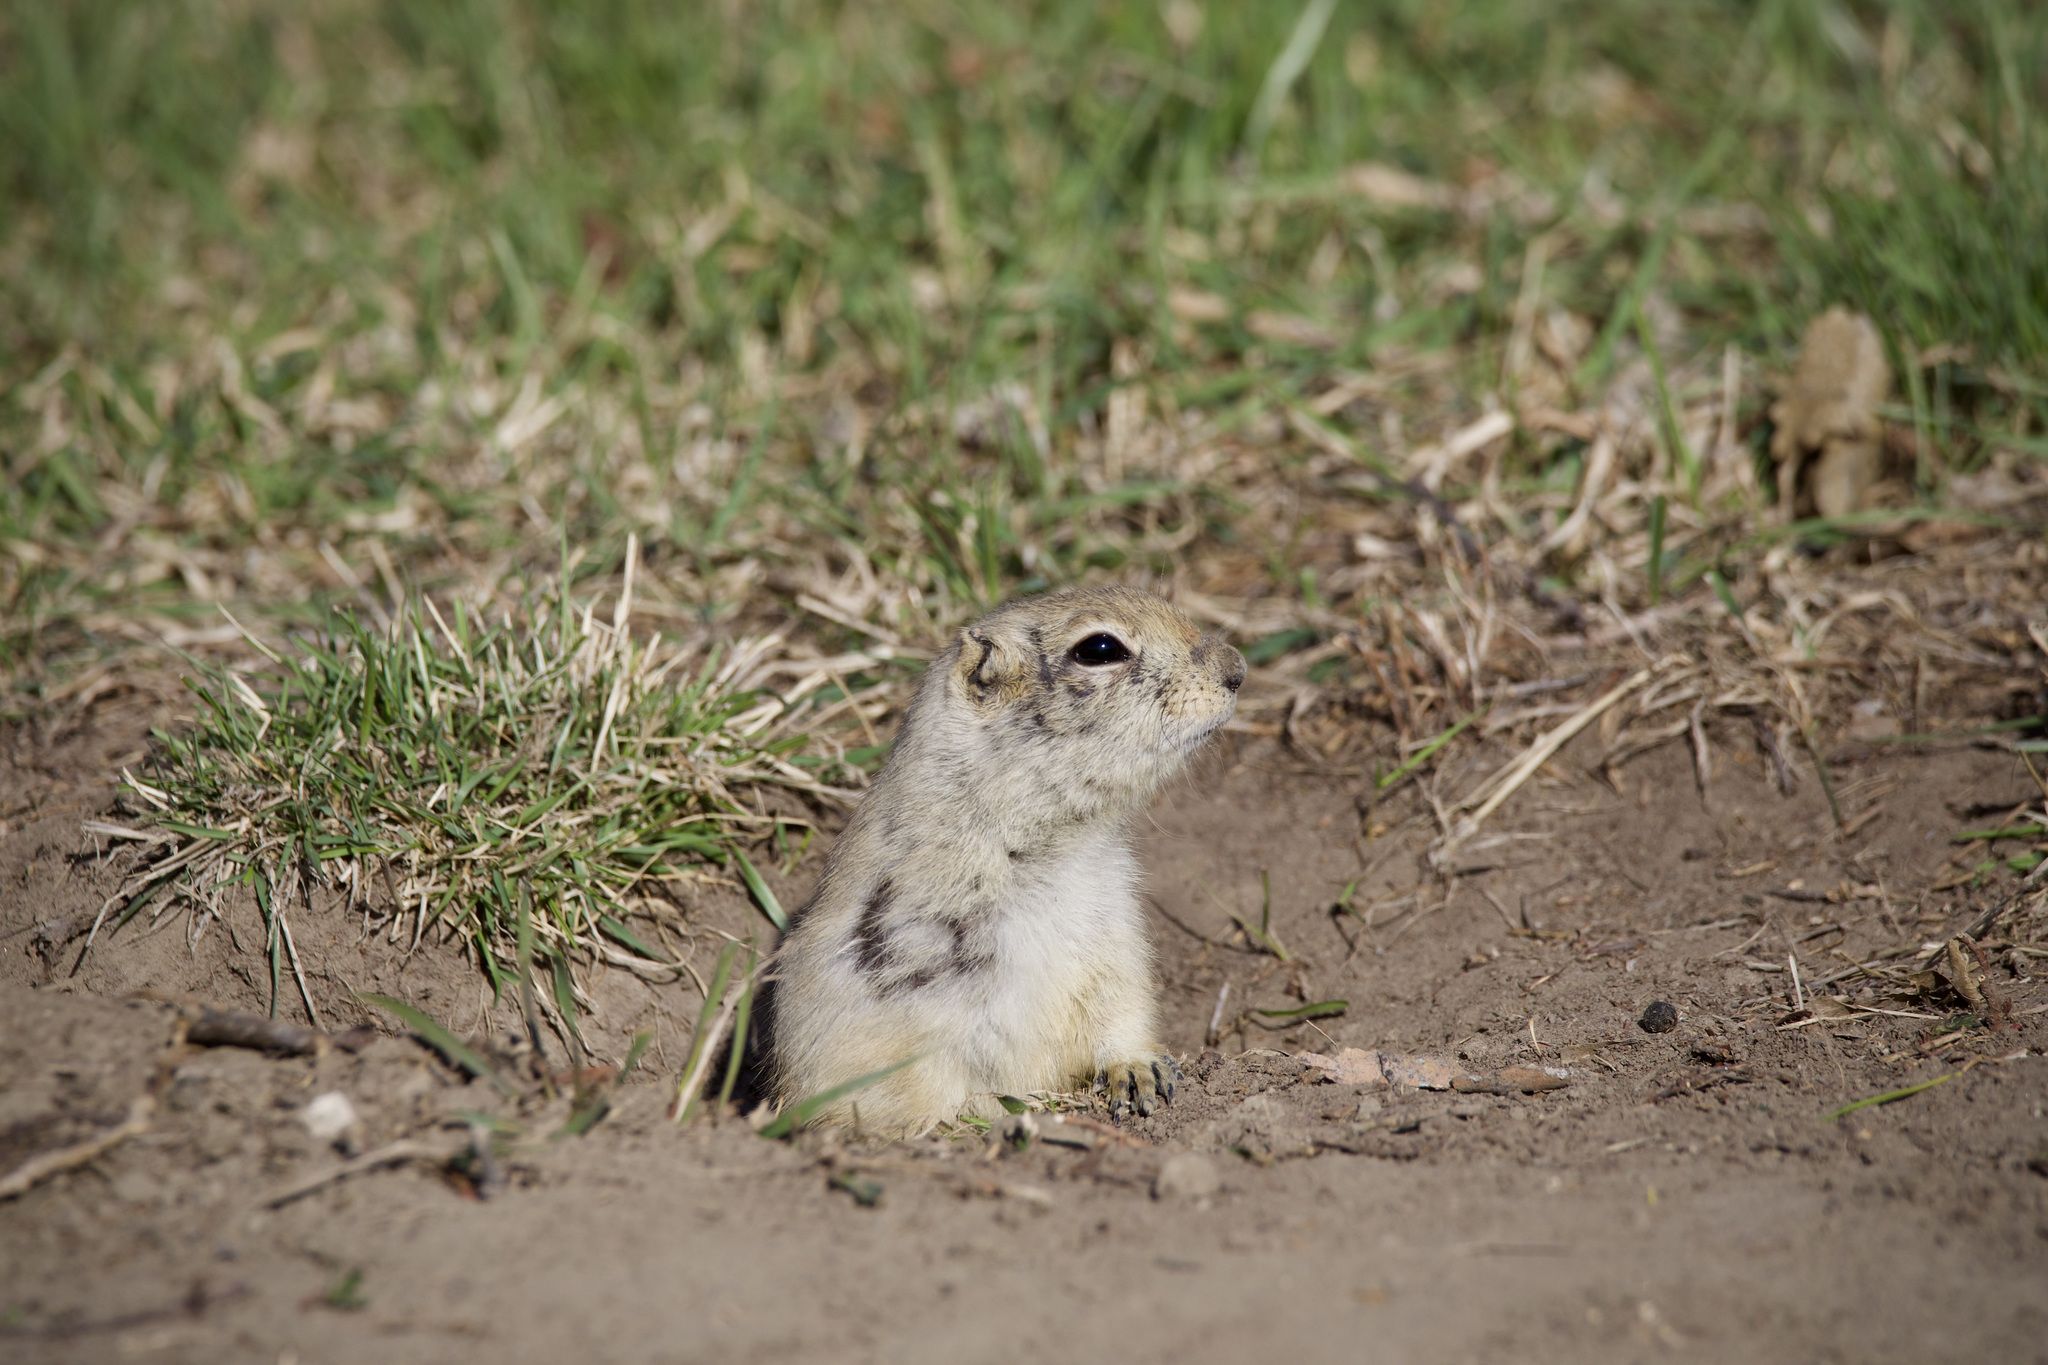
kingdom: Animalia
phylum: Chordata
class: Mammalia
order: Rodentia
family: Sciuridae
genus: Urocitellus
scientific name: Urocitellus richardsonii
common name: Richardson's ground squirrel
